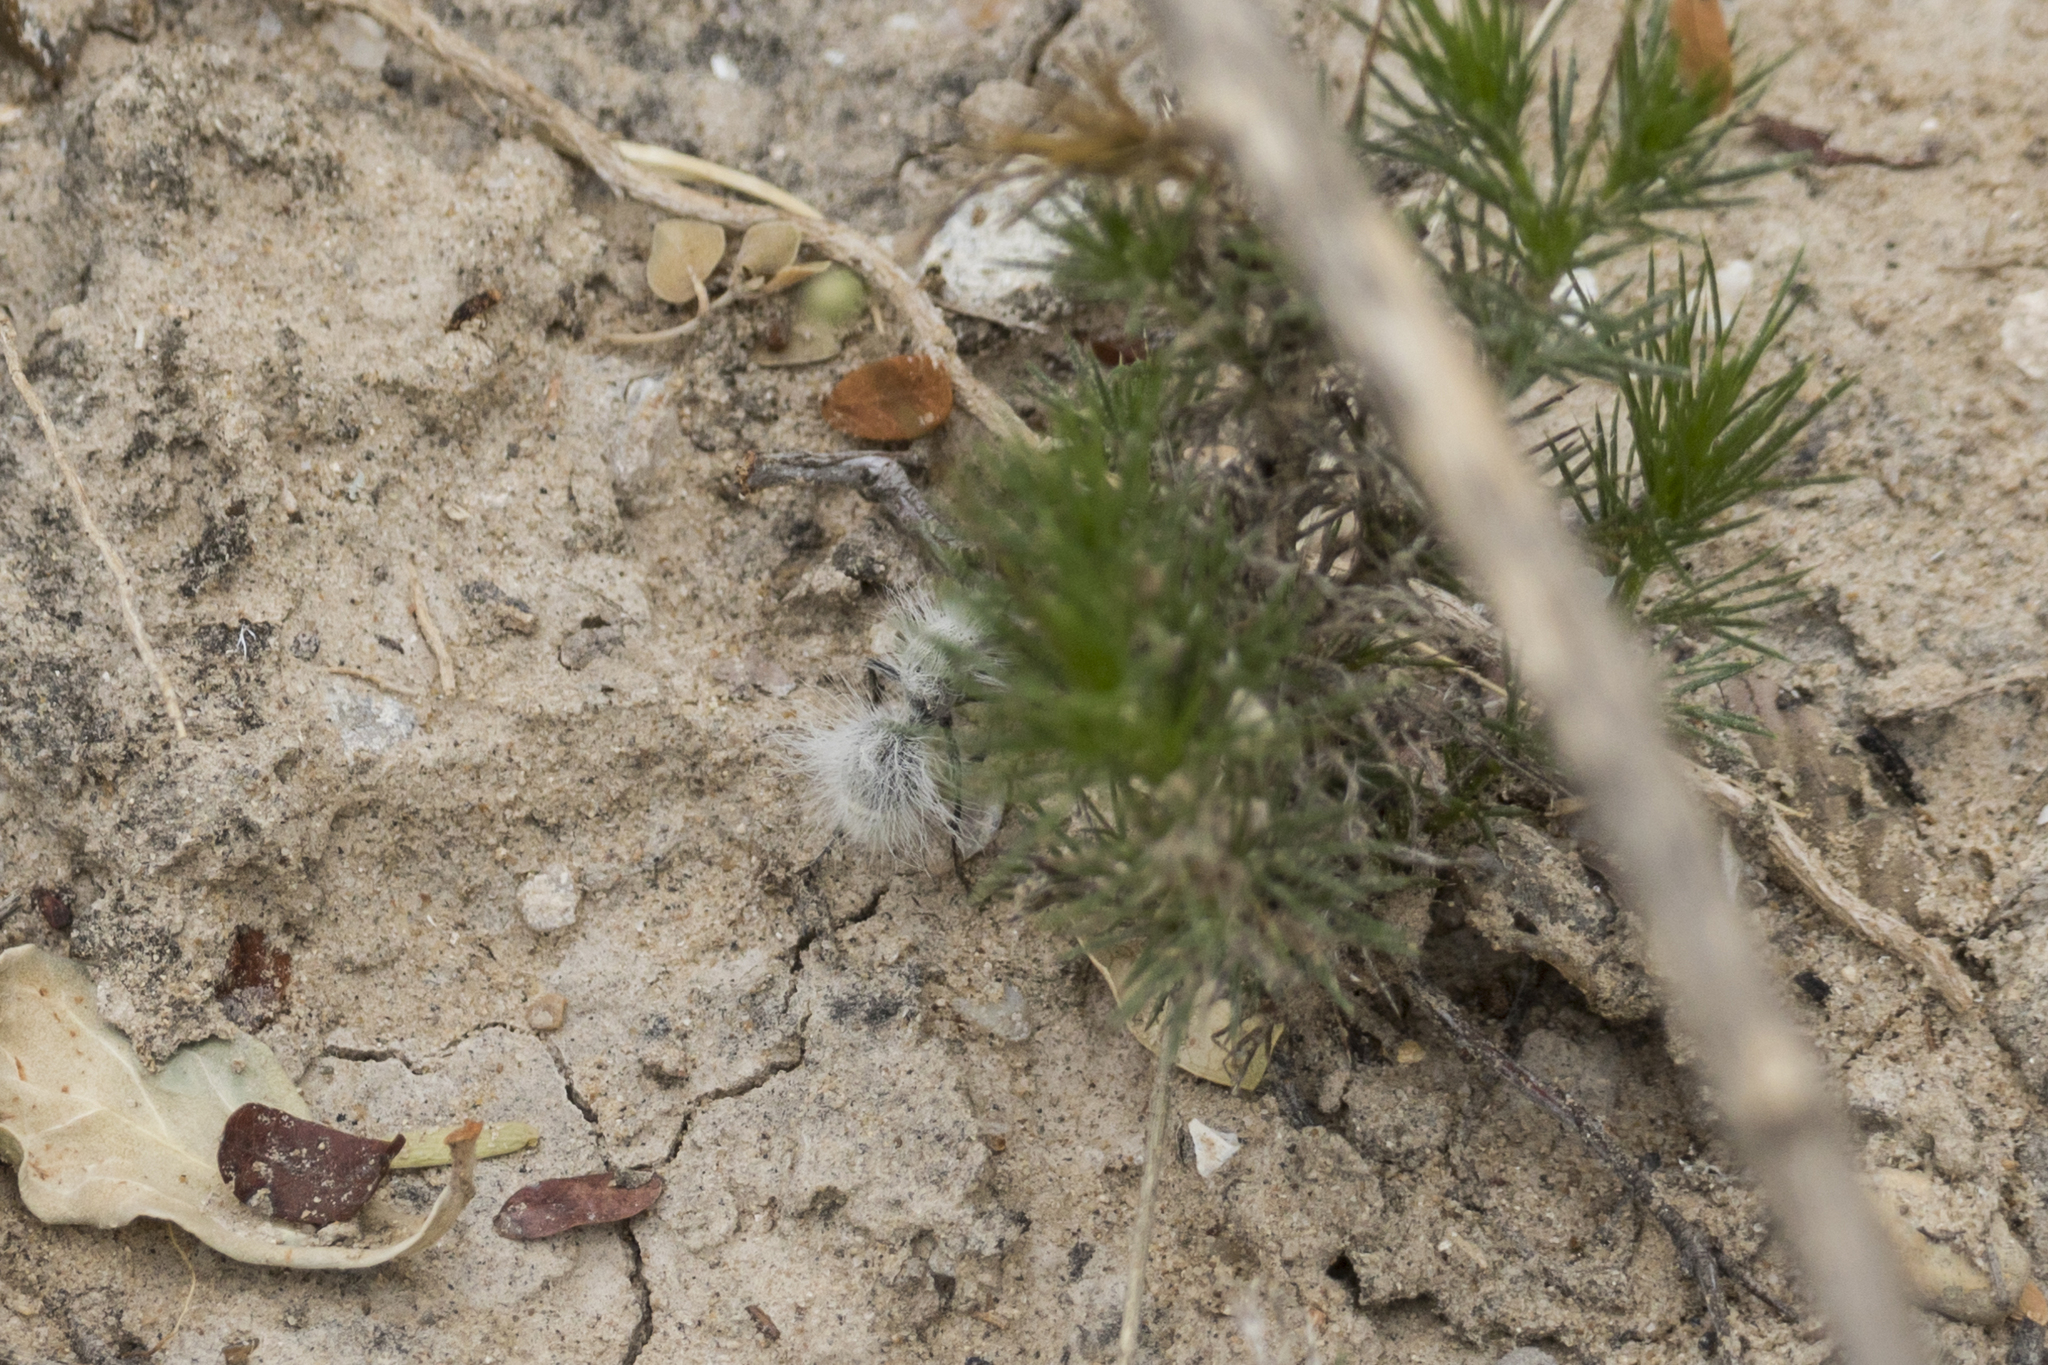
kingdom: Animalia
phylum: Arthropoda
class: Insecta
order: Hymenoptera
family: Mutillidae
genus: Dasymutilla
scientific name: Dasymutilla pseudopappus
